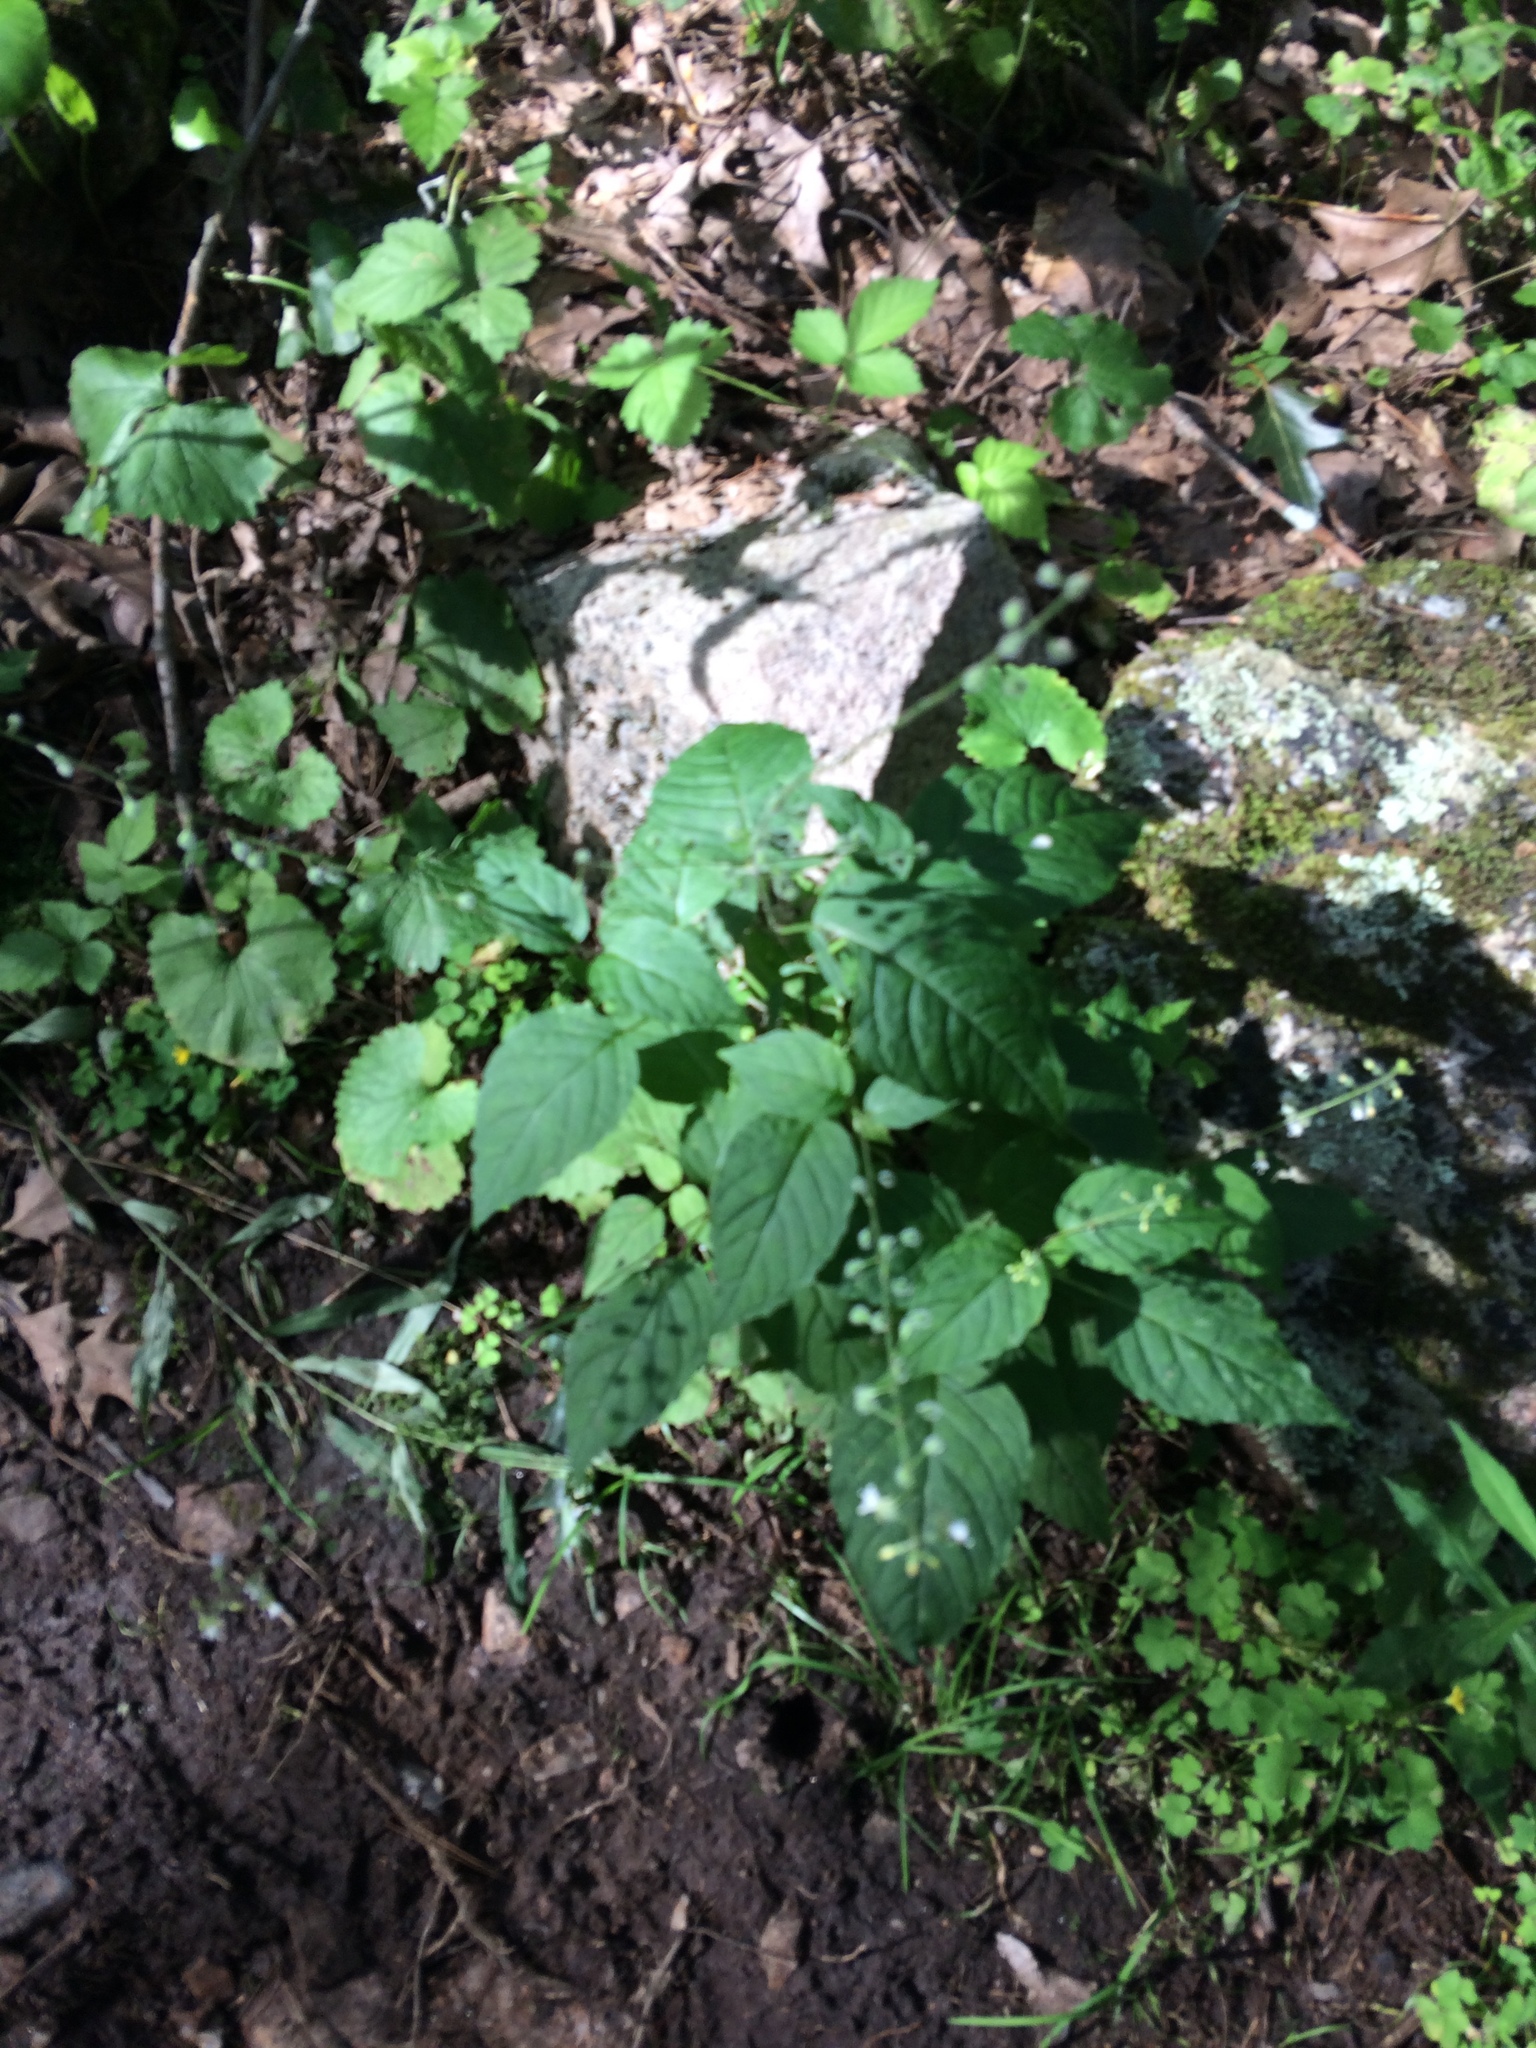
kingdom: Plantae
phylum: Tracheophyta
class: Magnoliopsida
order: Myrtales
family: Onagraceae
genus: Circaea
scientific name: Circaea canadensis
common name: Broad-leaved enchanter's nightshade
